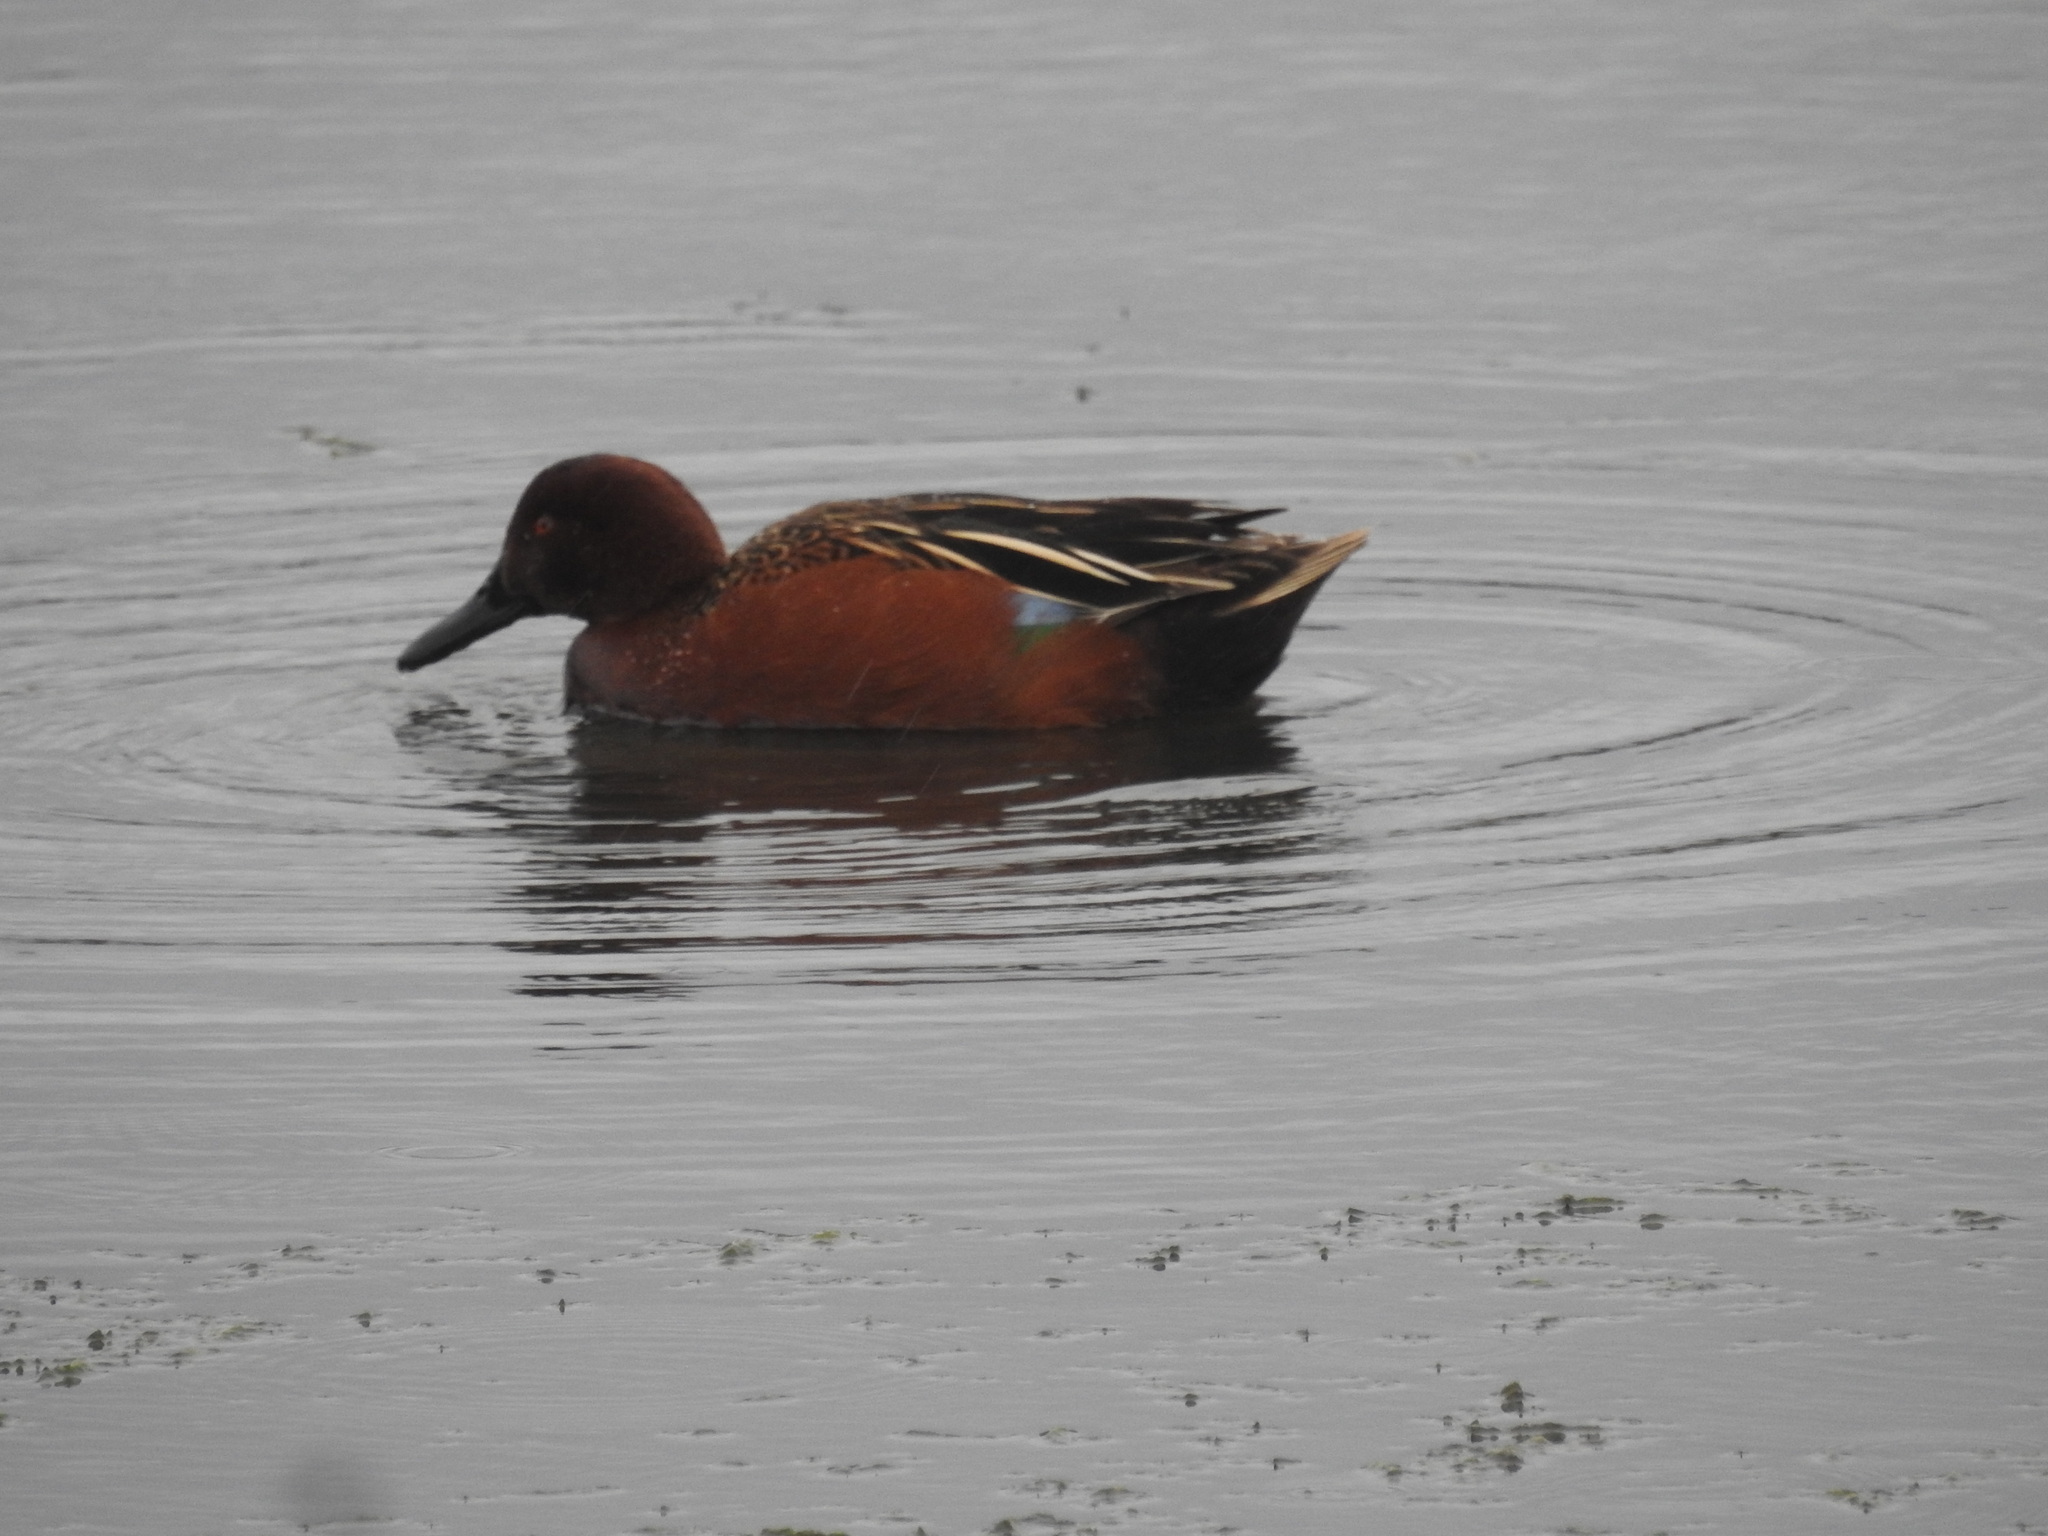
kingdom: Animalia
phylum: Chordata
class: Aves
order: Anseriformes
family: Anatidae
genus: Spatula
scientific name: Spatula cyanoptera
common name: Cinnamon teal
